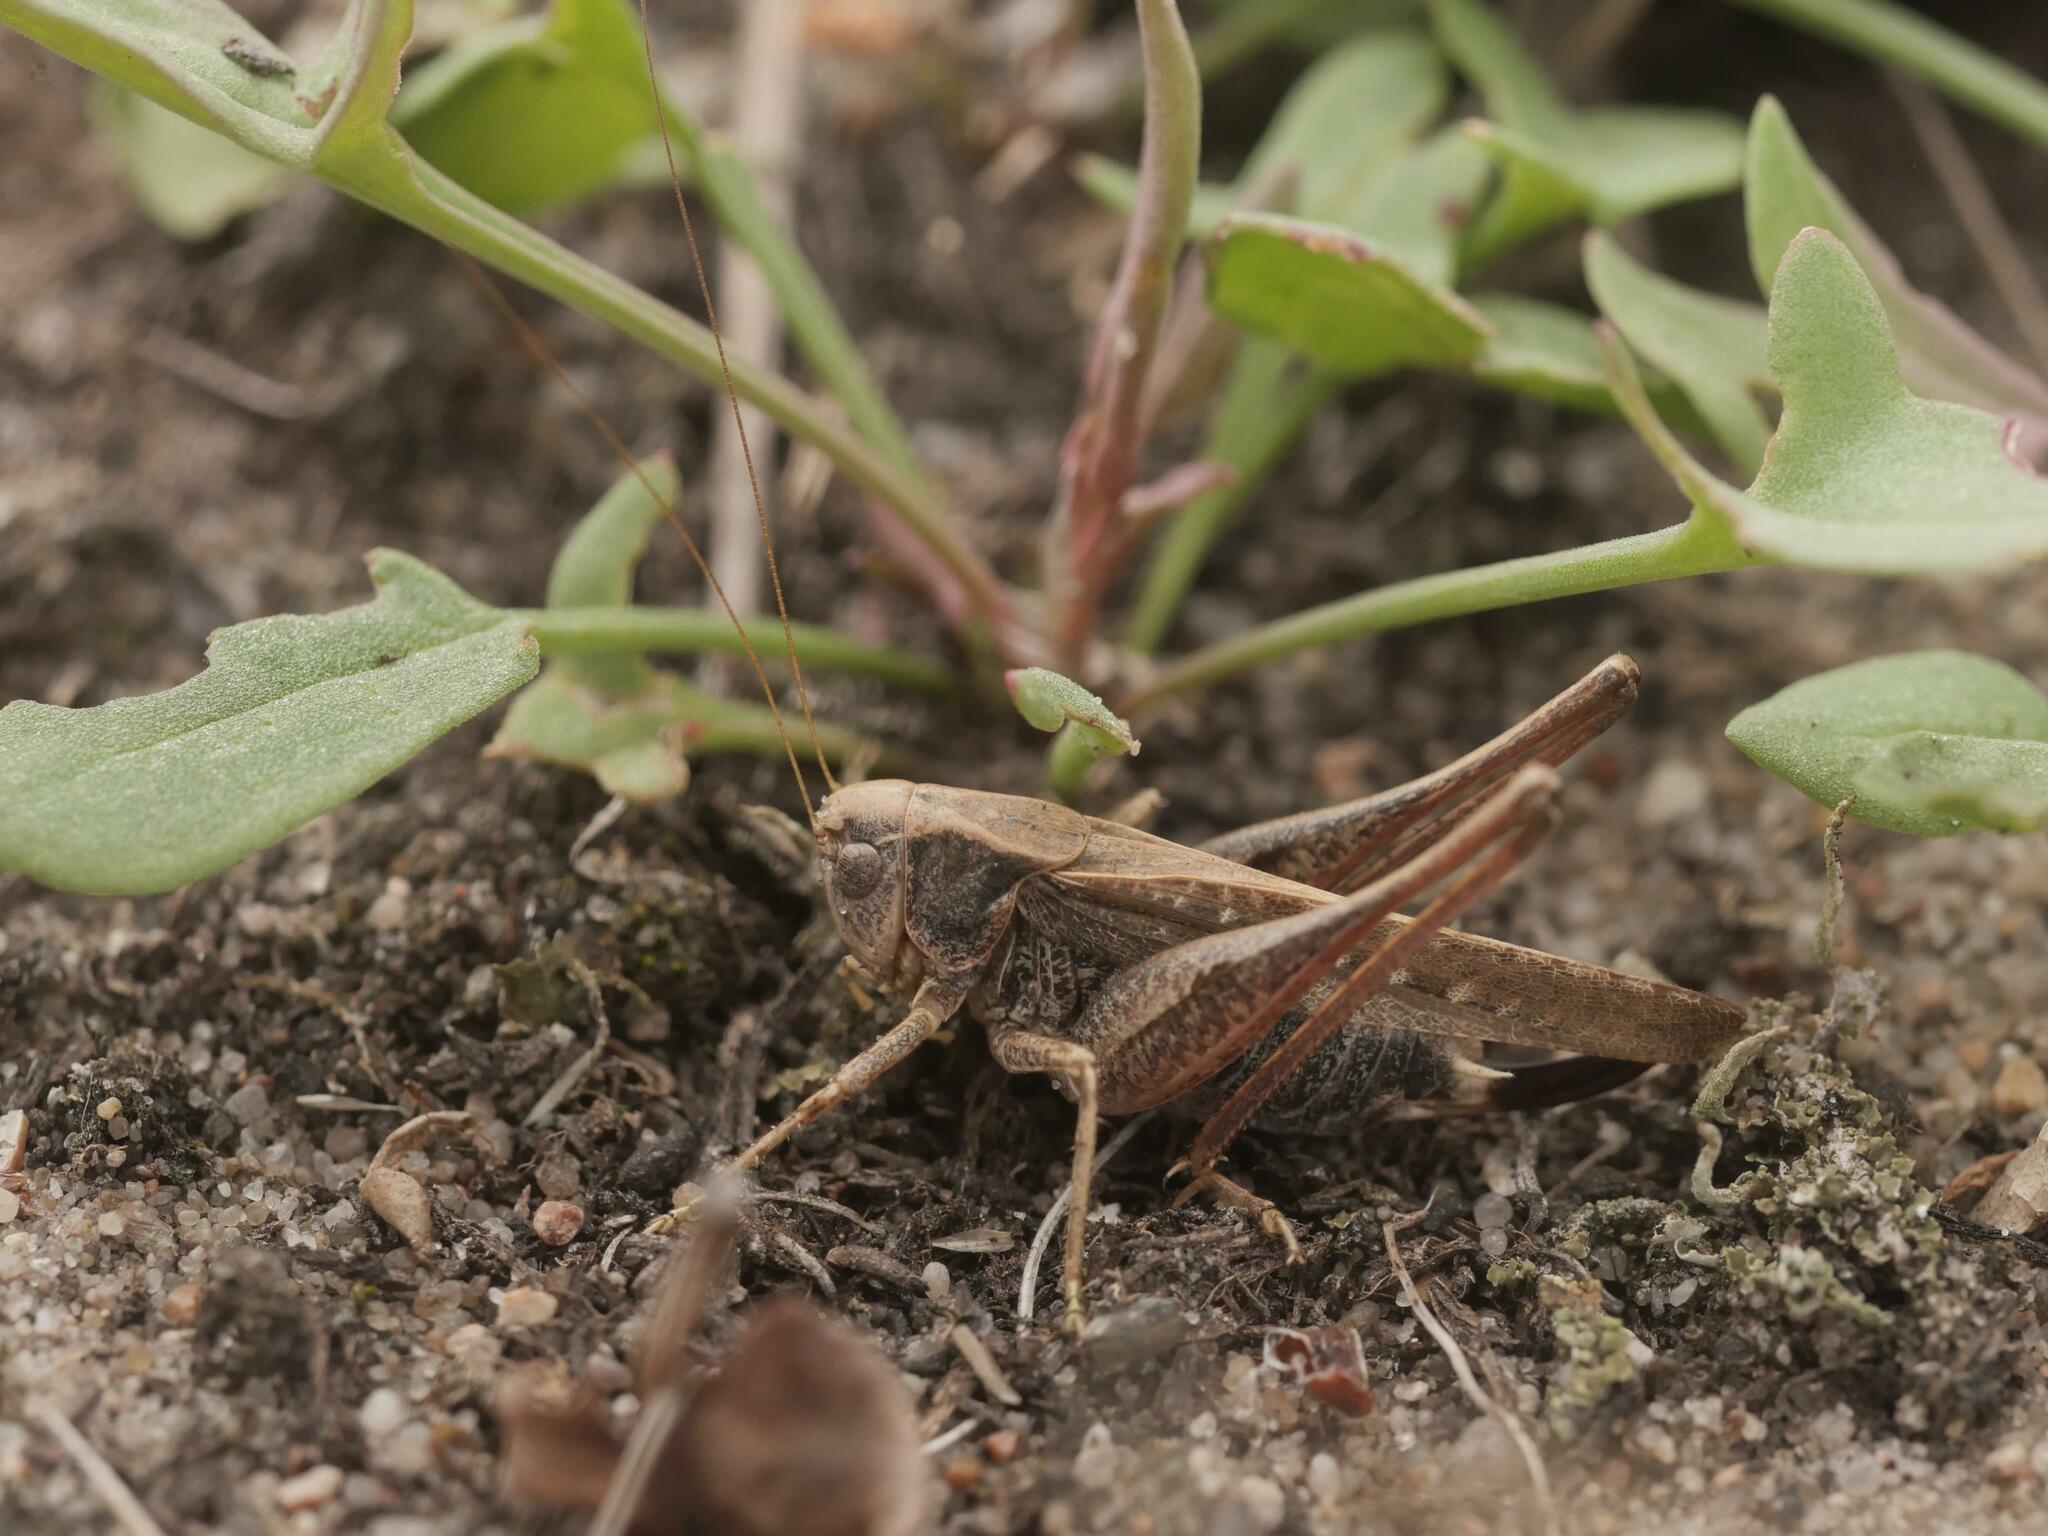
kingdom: Animalia
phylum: Arthropoda
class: Insecta
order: Orthoptera
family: Tettigoniidae
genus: Platycleis
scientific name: Platycleis albopunctata
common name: Grey bush-cricket
